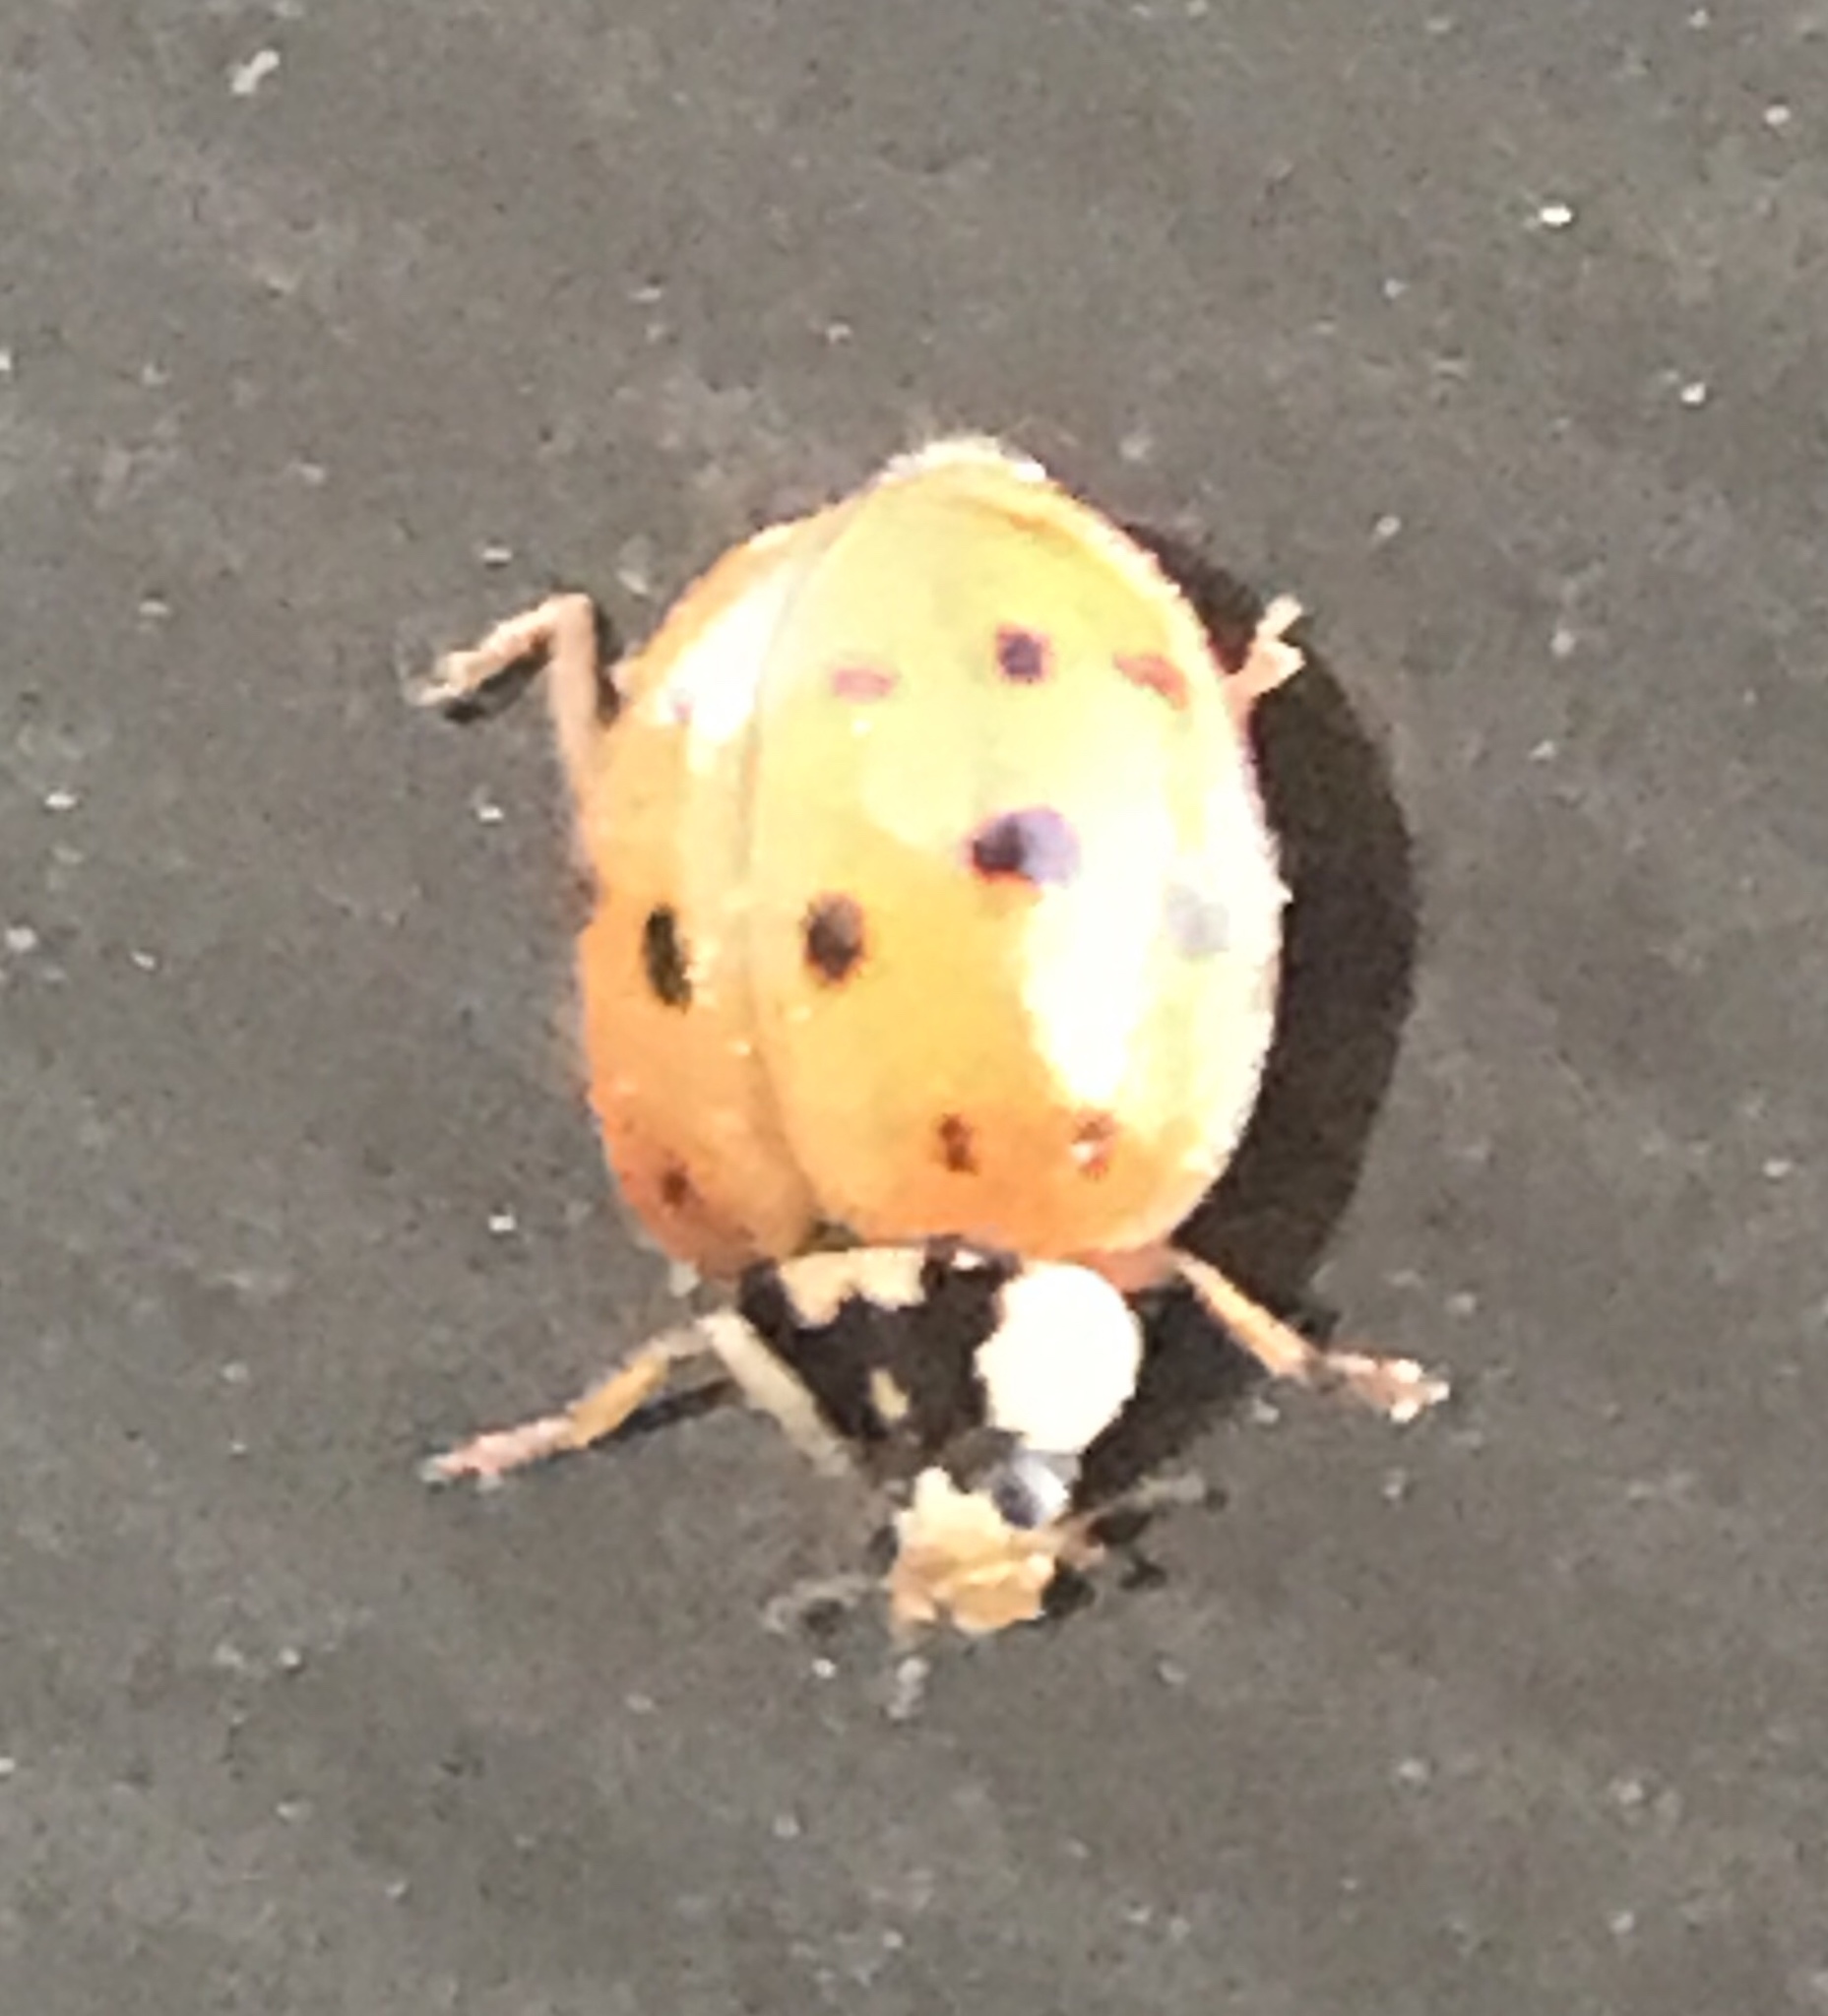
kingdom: Animalia
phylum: Arthropoda
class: Insecta
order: Coleoptera
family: Coccinellidae
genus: Harmonia
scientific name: Harmonia axyridis
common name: Harlequin ladybird
